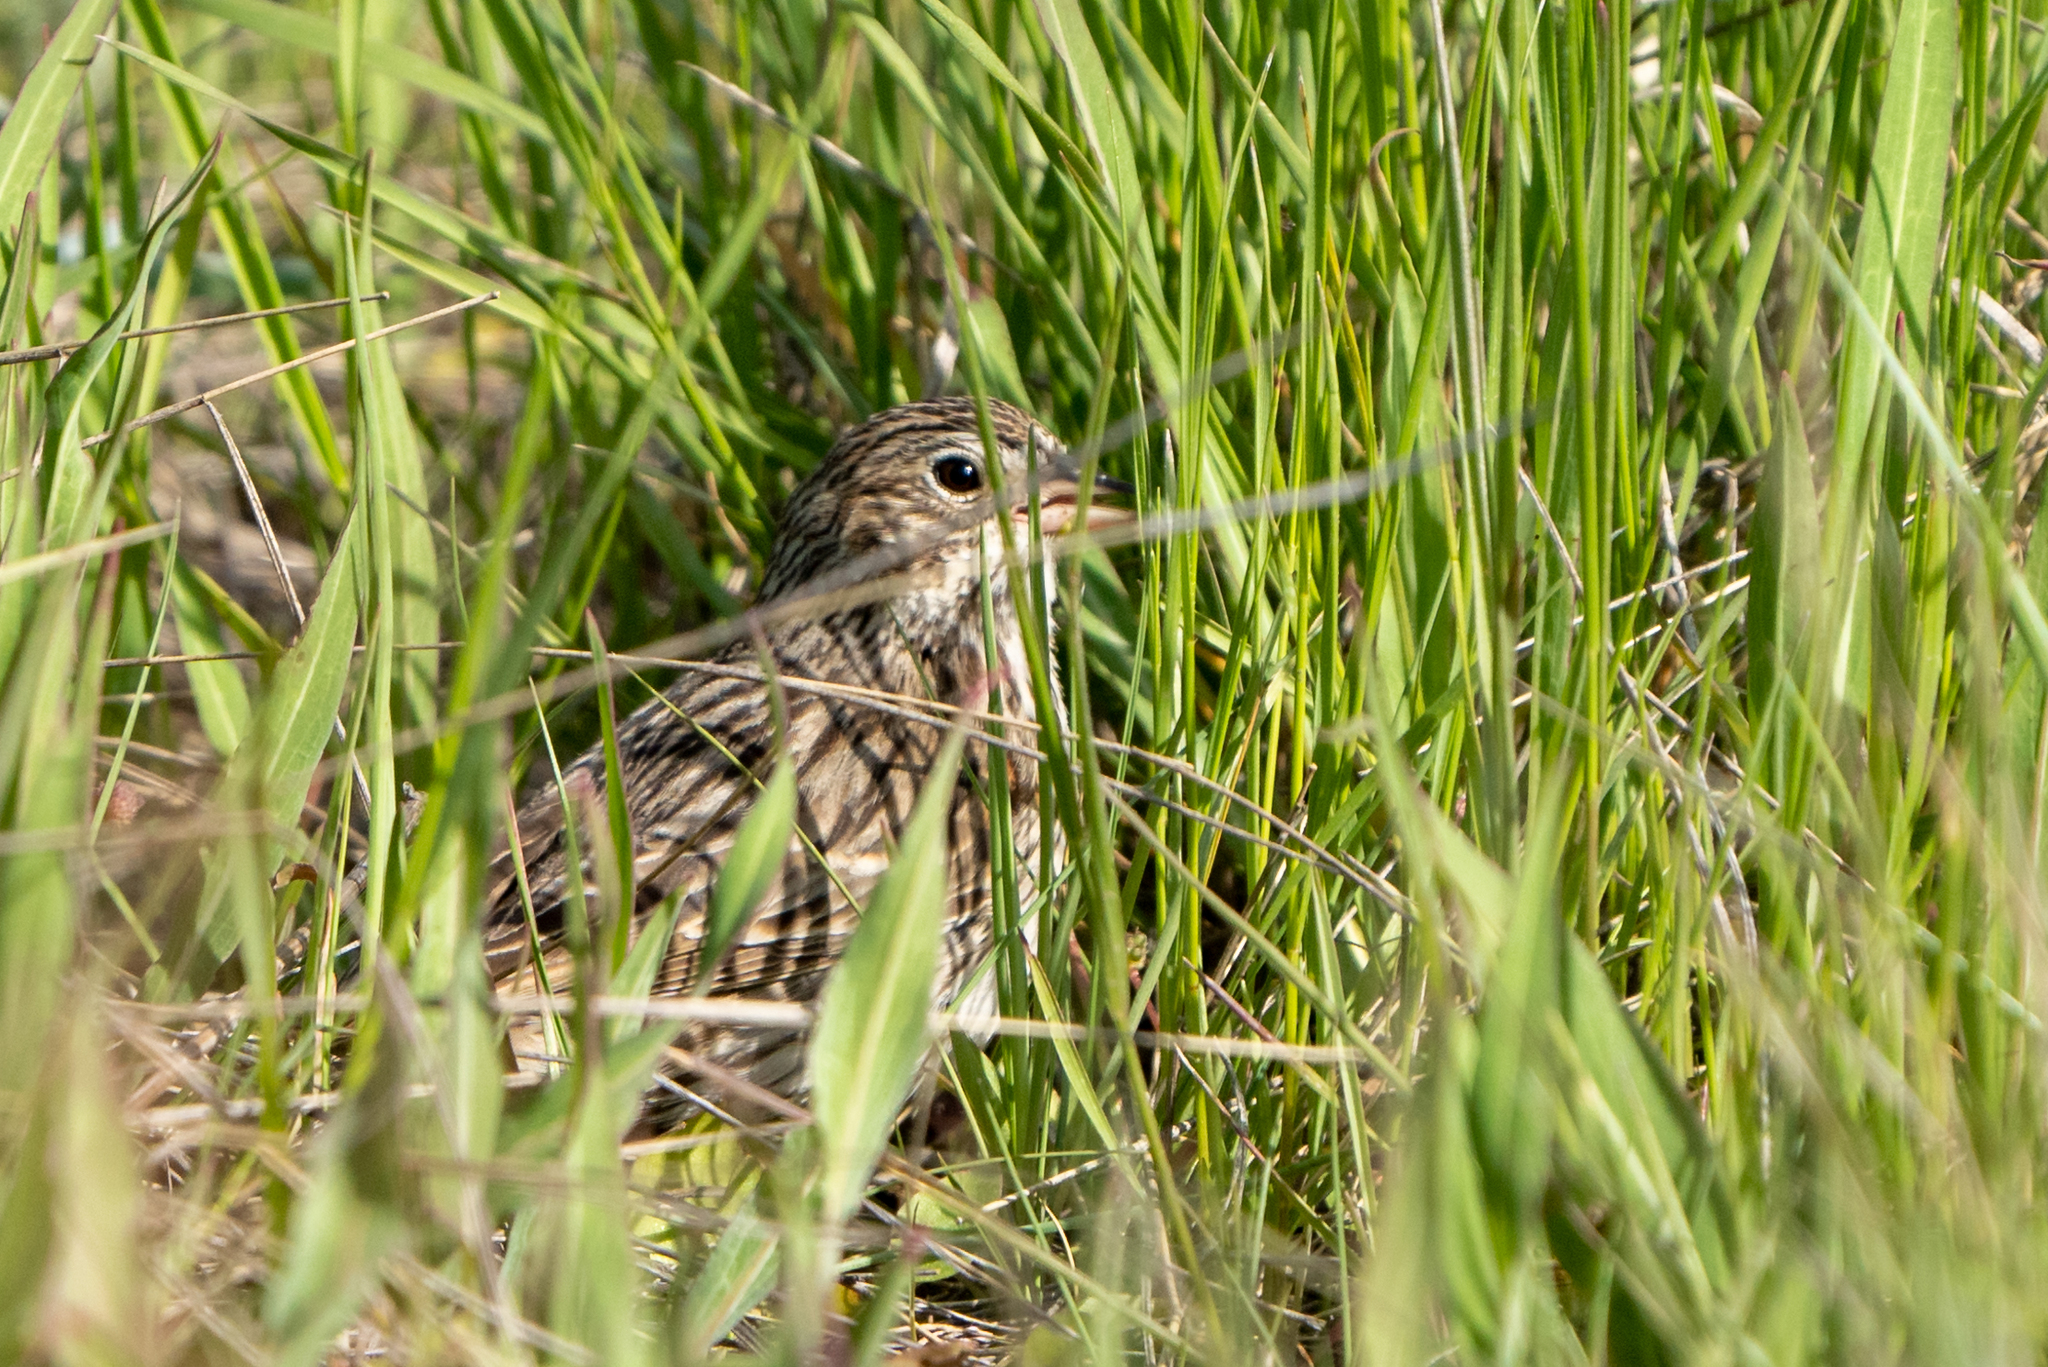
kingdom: Animalia
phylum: Chordata
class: Aves
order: Passeriformes
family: Passerellidae
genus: Pooecetes
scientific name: Pooecetes gramineus
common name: Vesper sparrow
